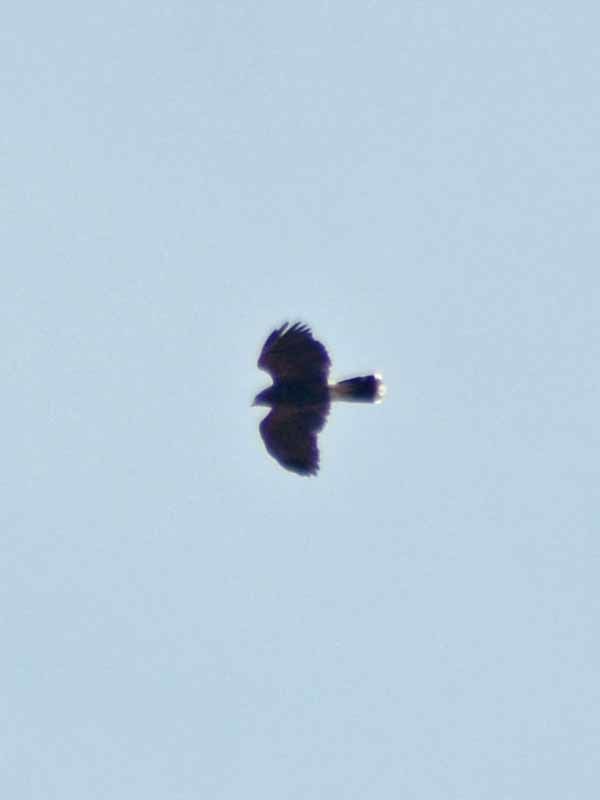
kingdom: Animalia
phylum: Chordata
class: Aves
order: Accipitriformes
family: Accipitridae
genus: Parabuteo
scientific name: Parabuteo unicinctus
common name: Harris's hawk
